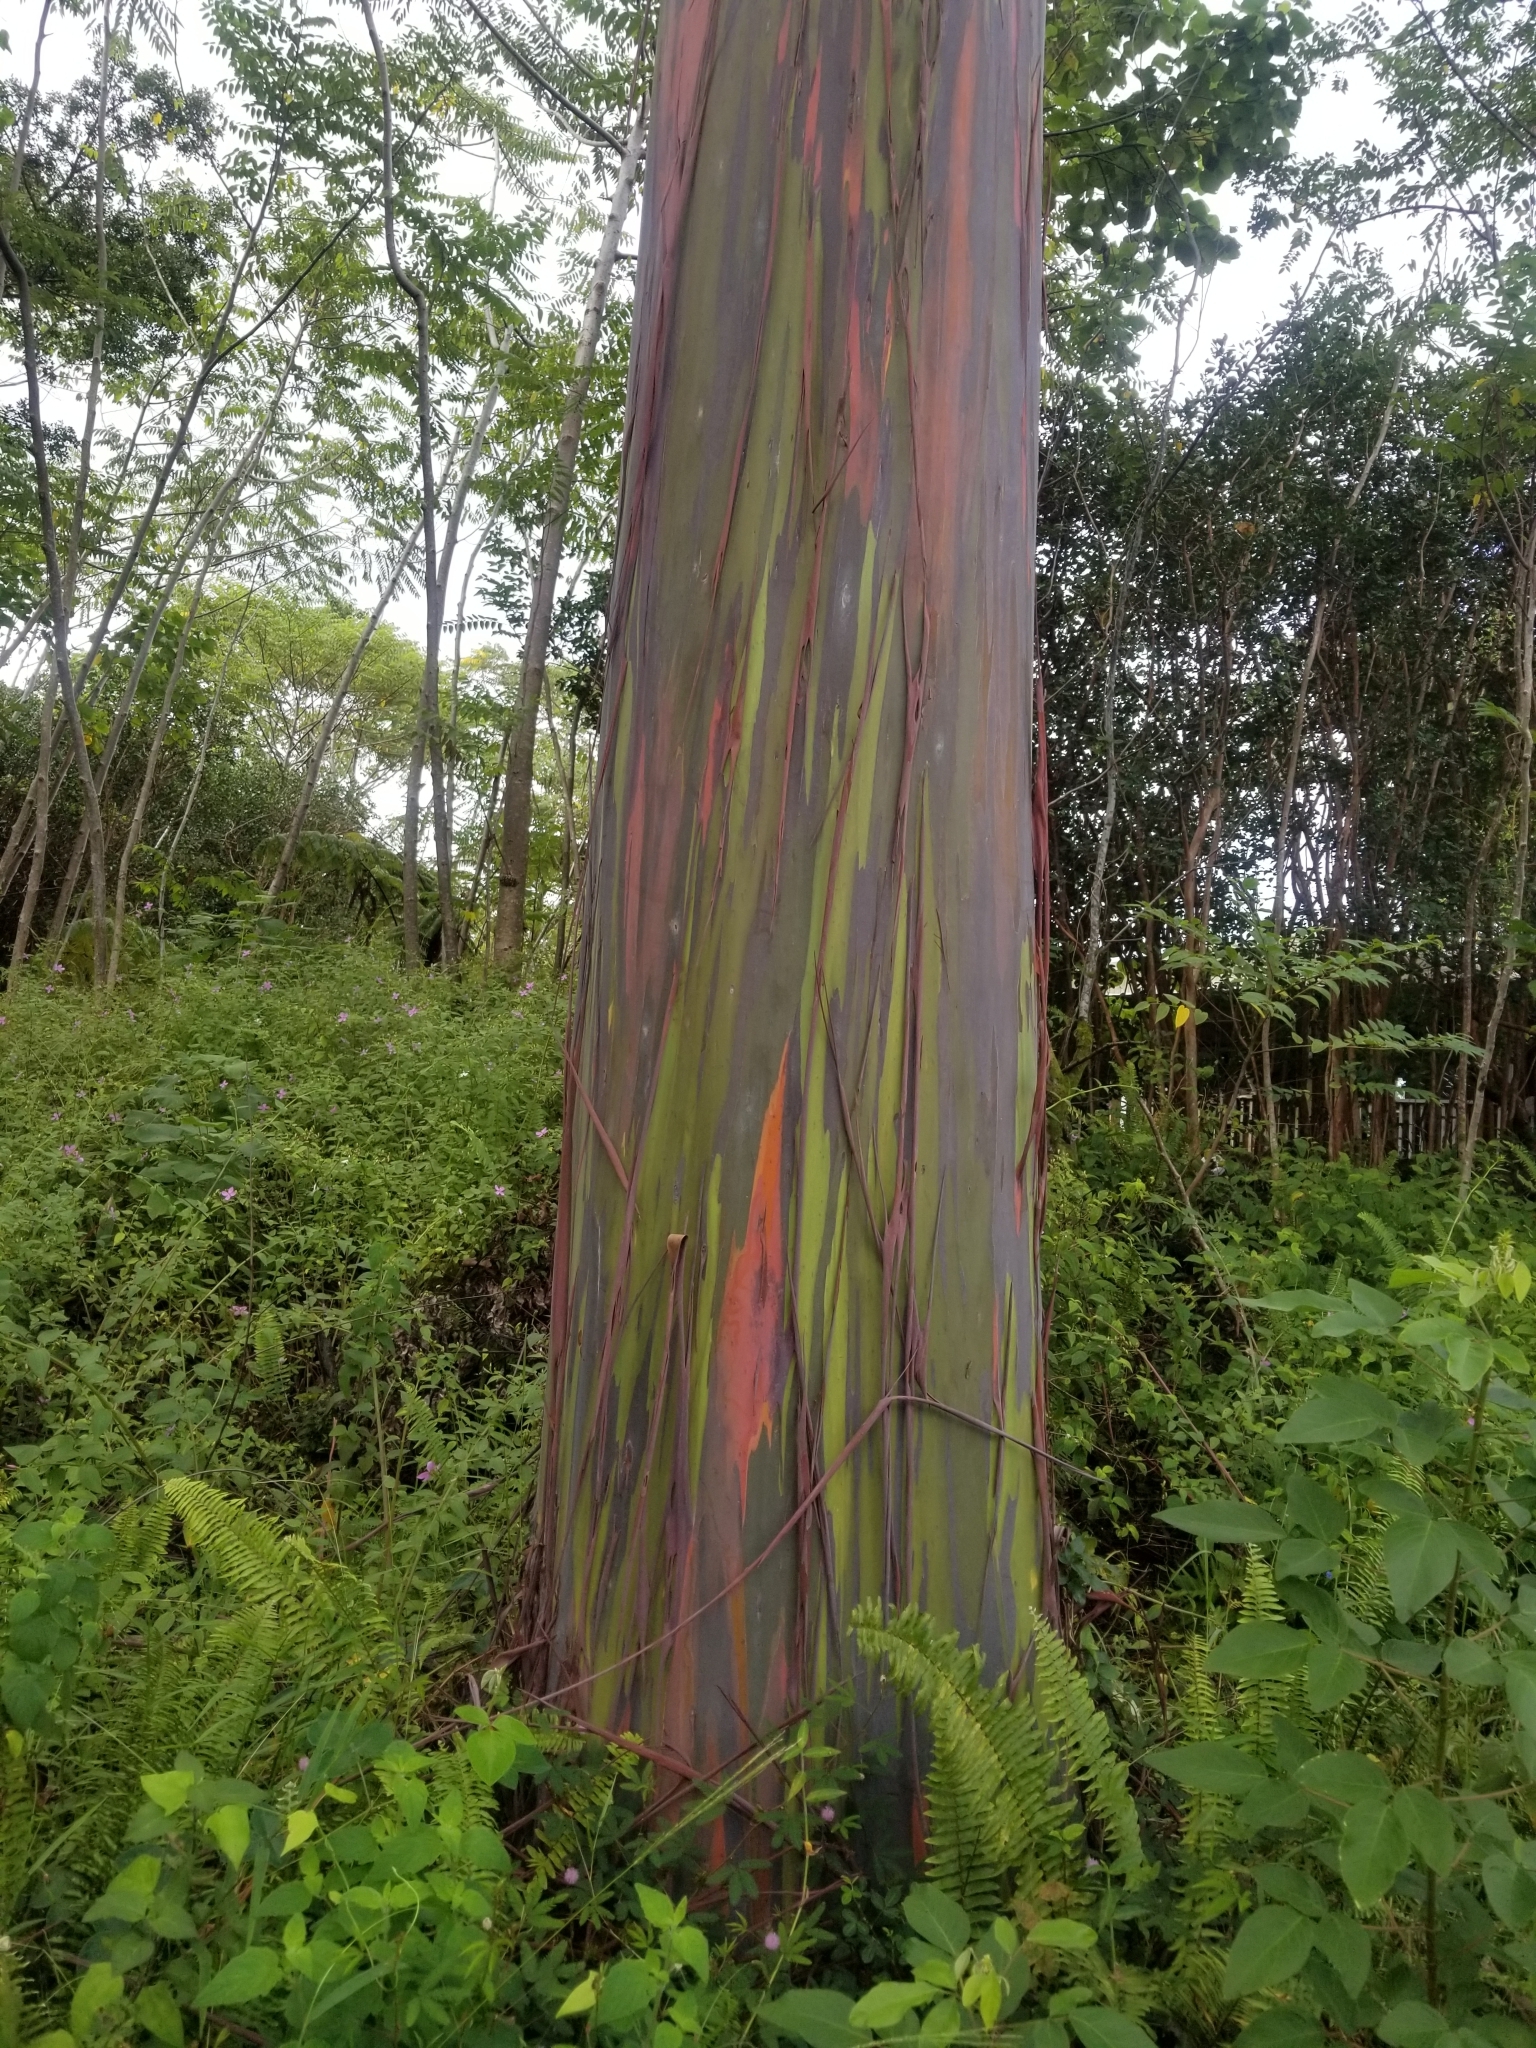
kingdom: Plantae
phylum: Tracheophyta
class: Magnoliopsida
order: Myrtales
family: Myrtaceae
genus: Eucalyptus
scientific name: Eucalyptus deglupta
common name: Mindanao gum
